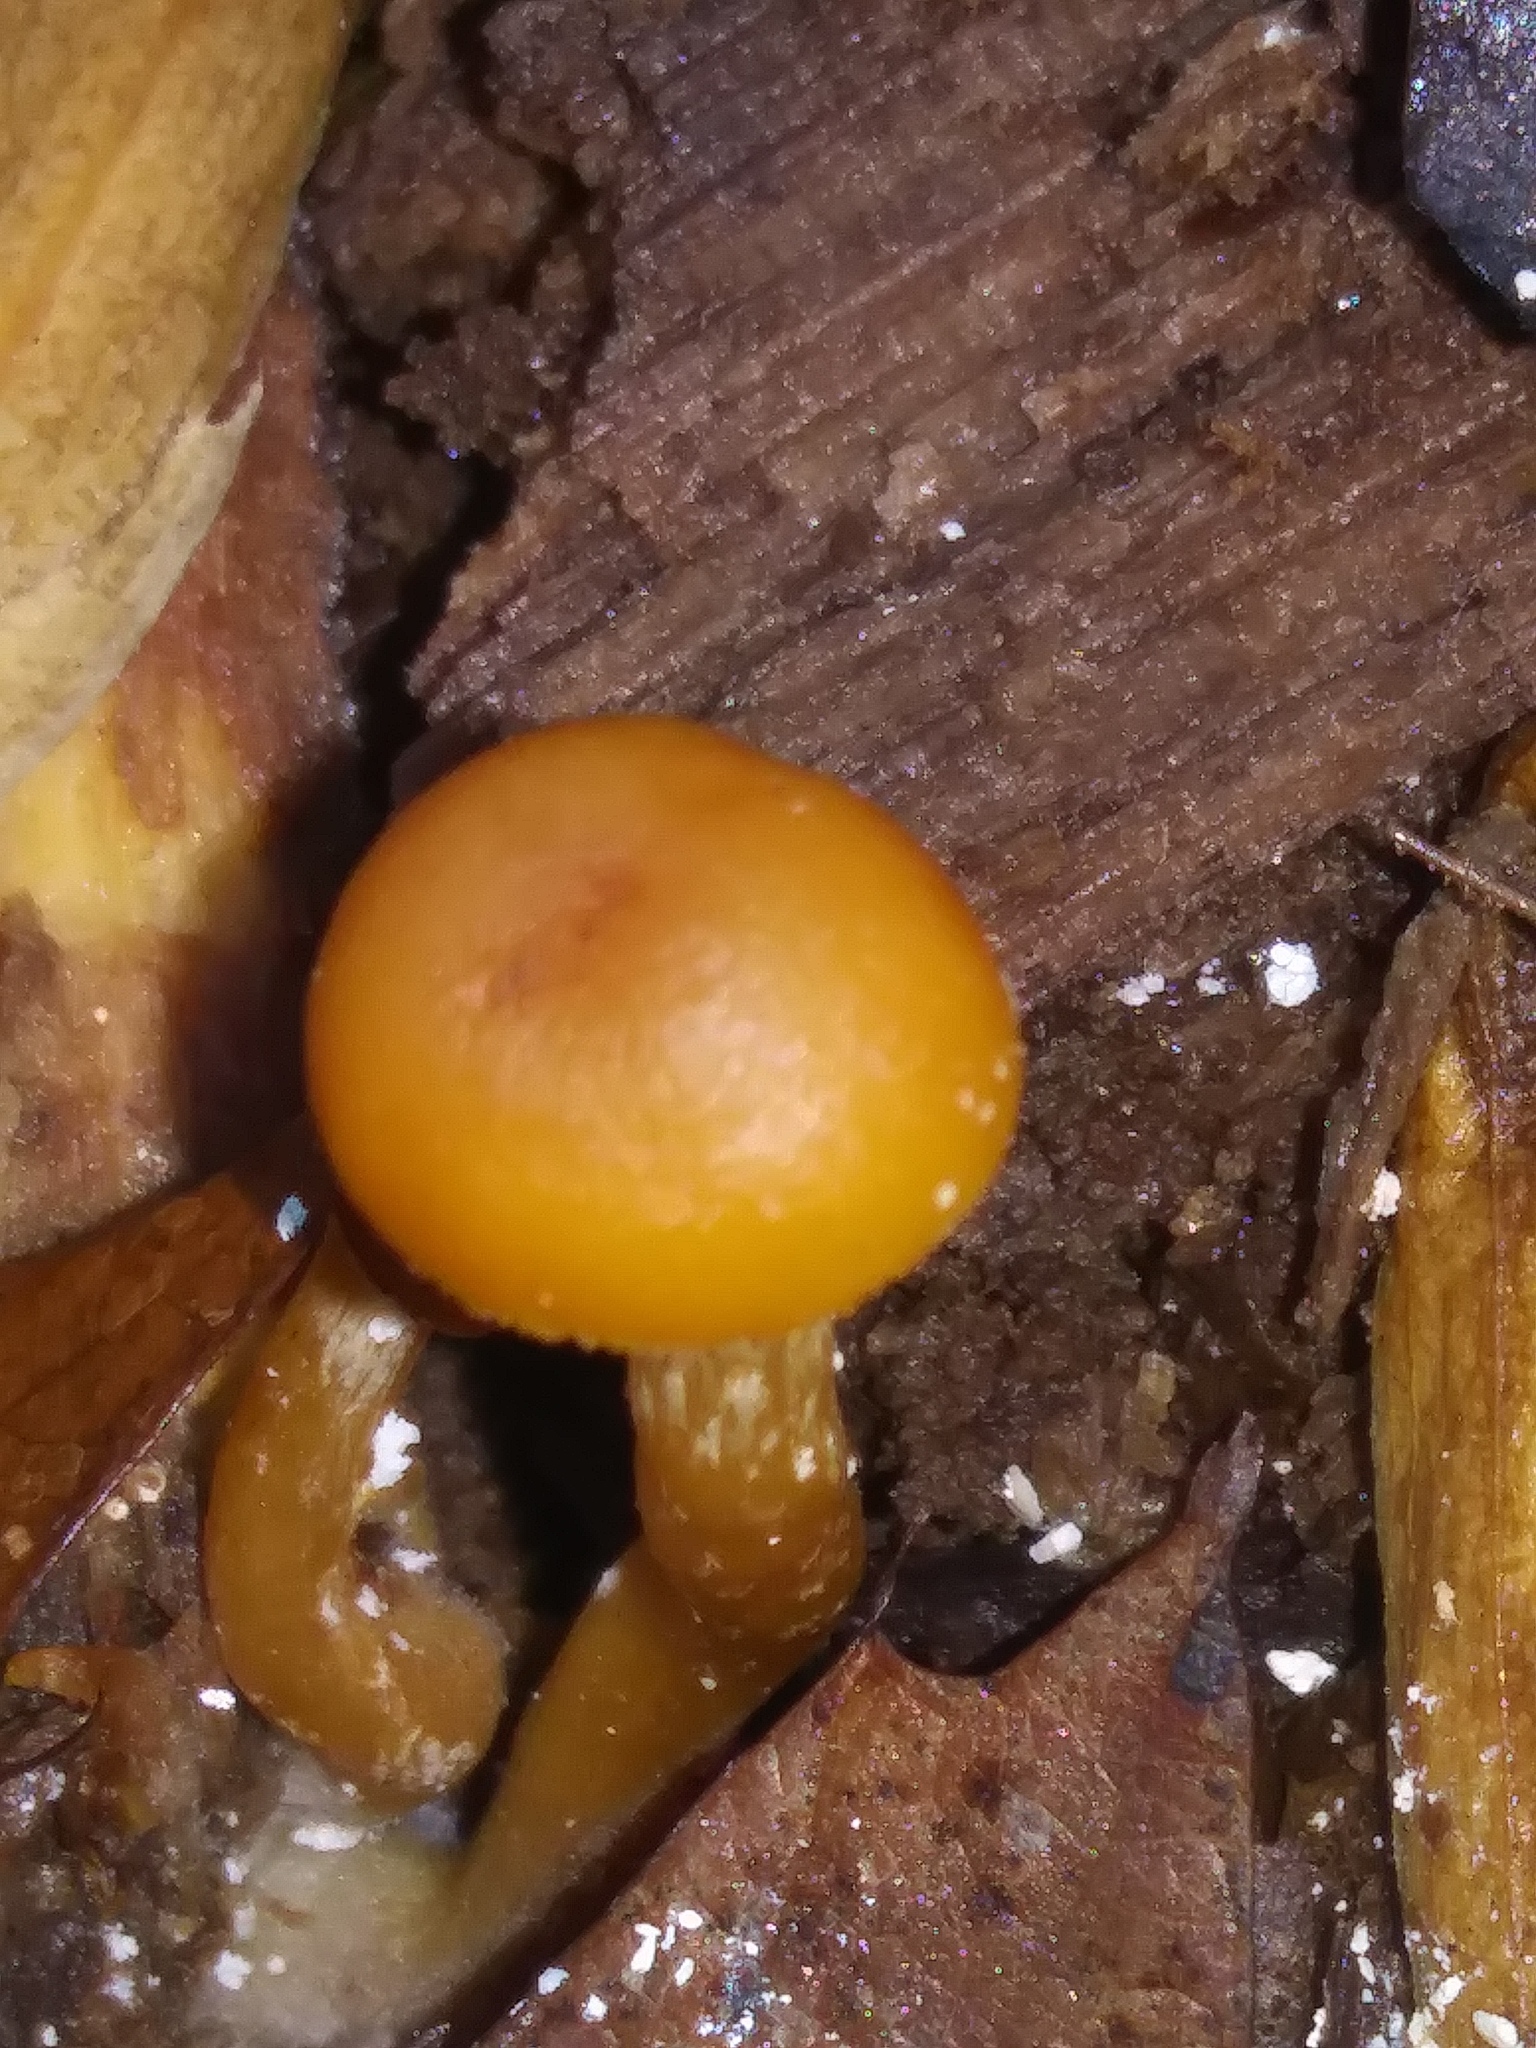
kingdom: Fungi
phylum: Basidiomycota
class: Agaricomycetes
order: Agaricales
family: Hymenogastraceae
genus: Galerina
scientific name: Galerina marginata
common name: Funeral bell
